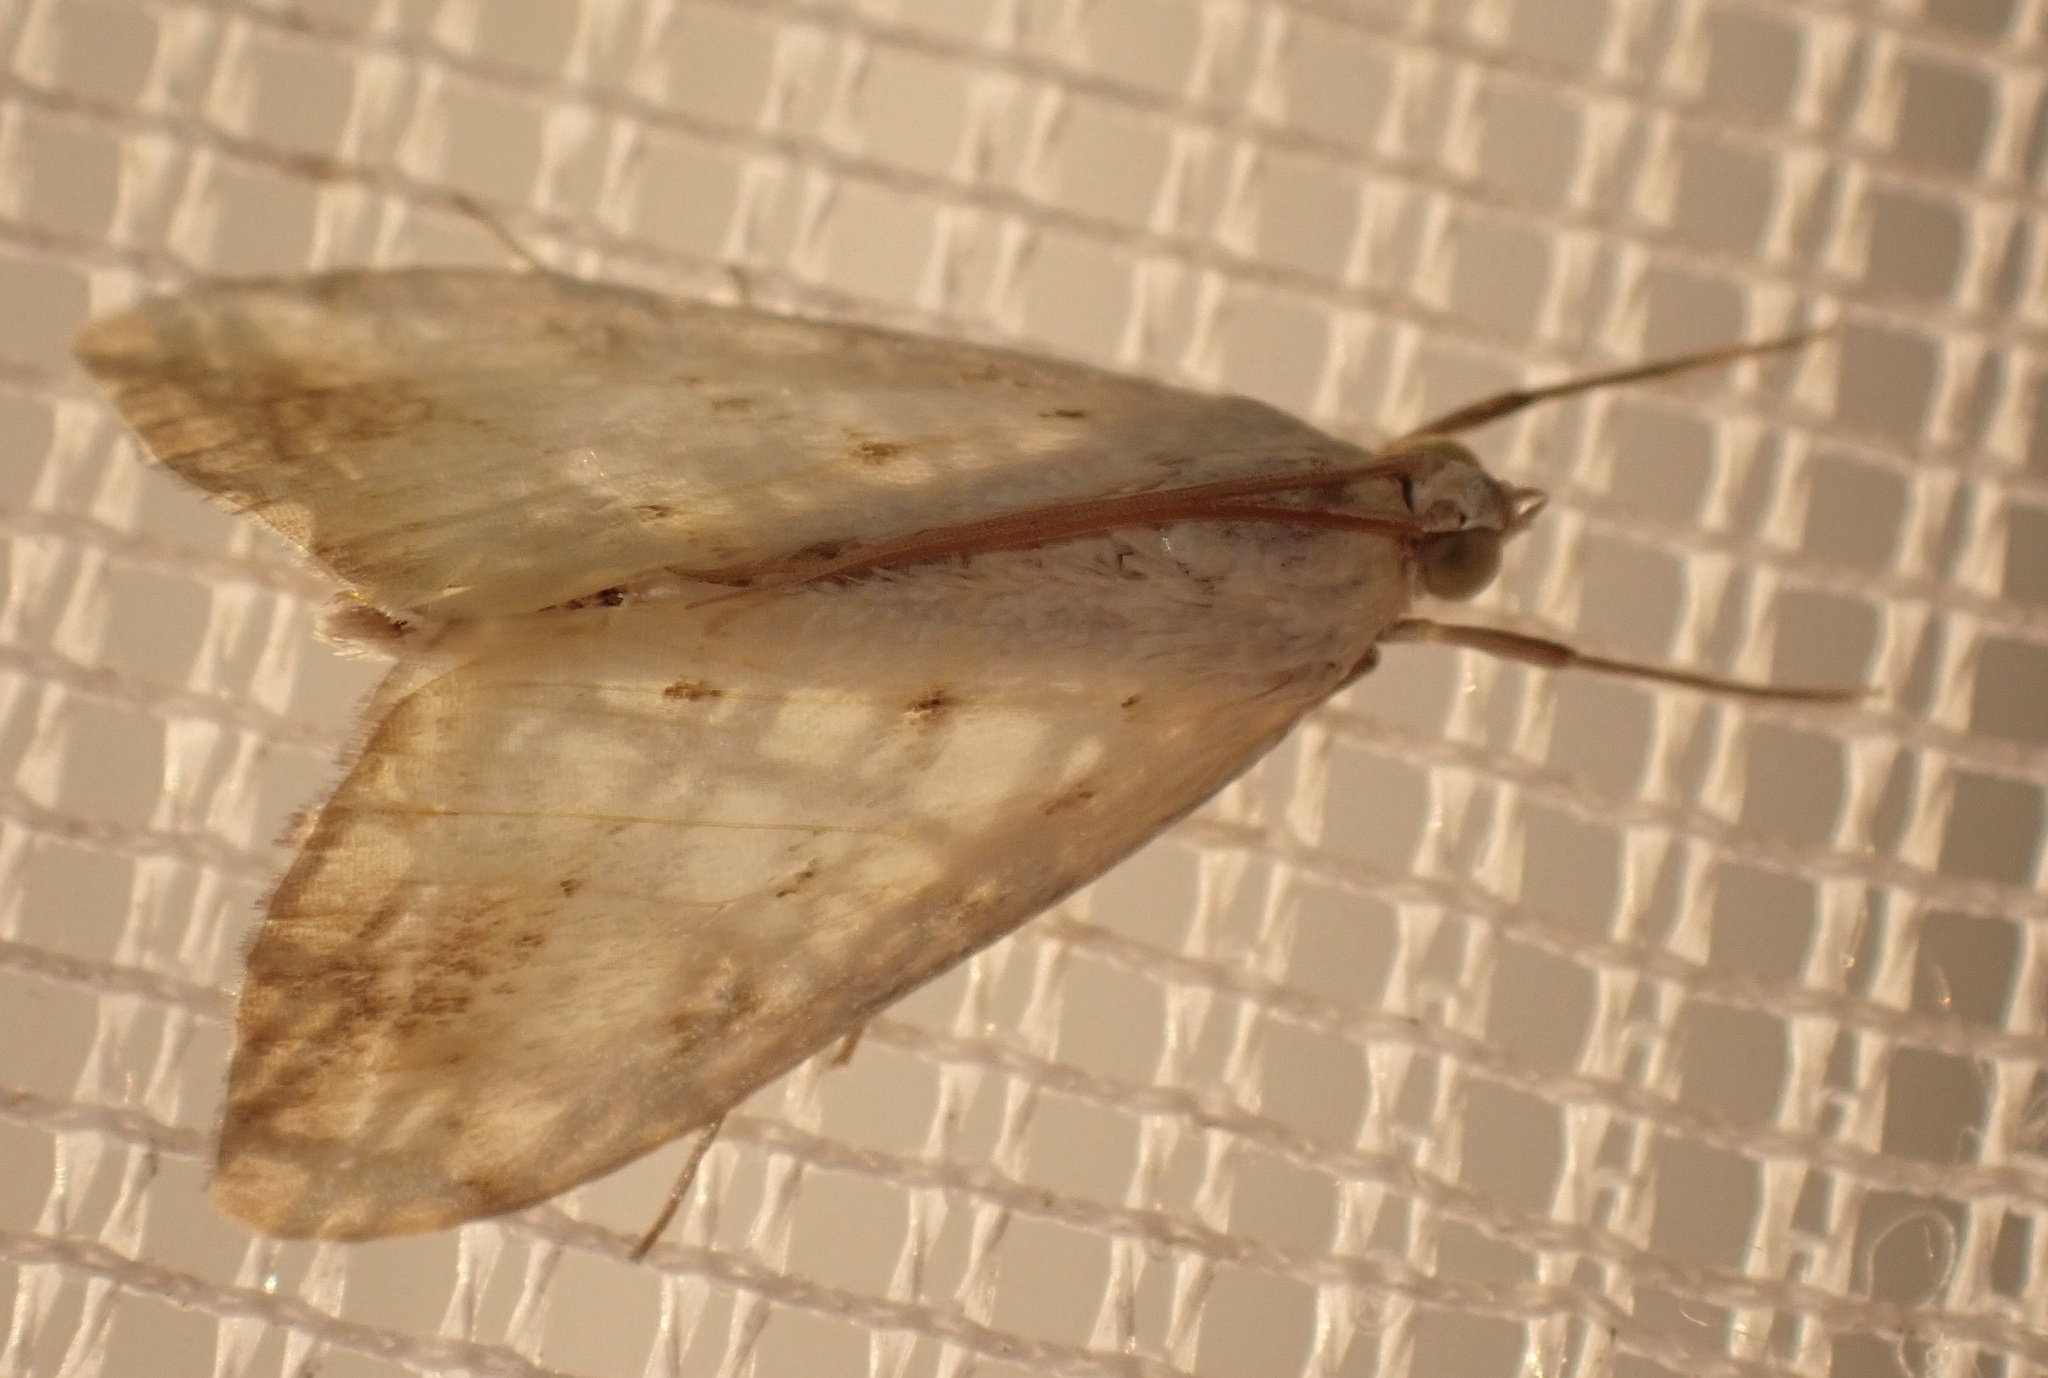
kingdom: Animalia
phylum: Arthropoda
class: Insecta
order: Lepidoptera
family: Crambidae
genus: Evergestis
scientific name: Evergestis extimalis
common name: Marbled yellow pearl
